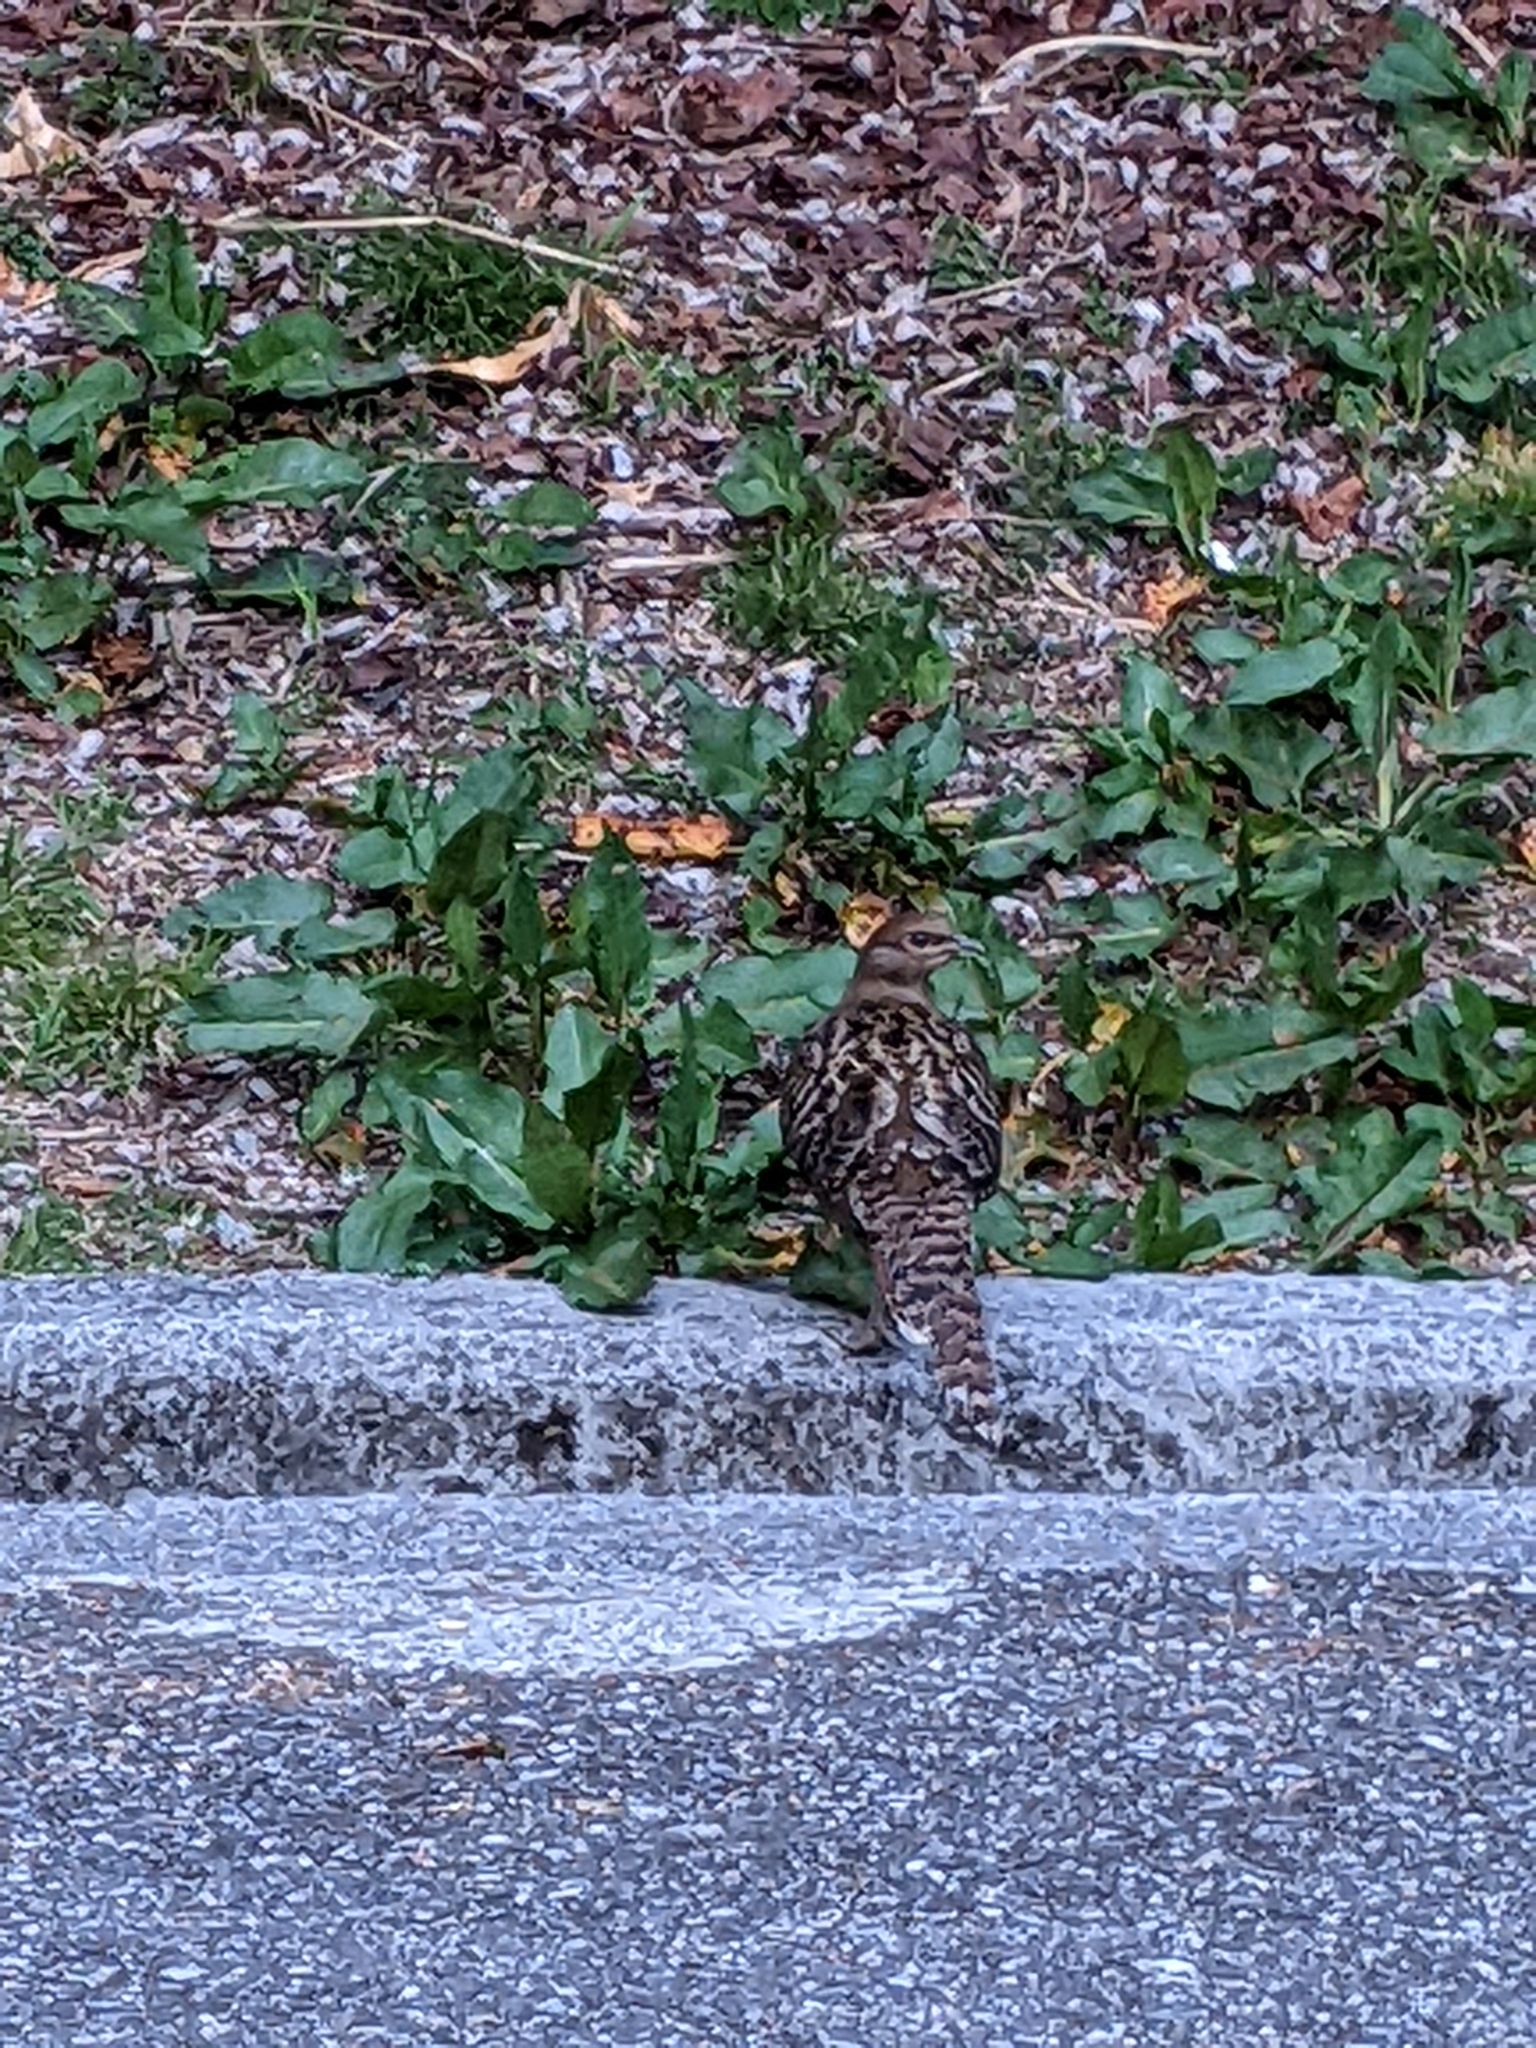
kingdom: Animalia
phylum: Chordata
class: Aves
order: Galliformes
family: Phasianidae
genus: Syrmaticus
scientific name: Syrmaticus mikado
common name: Mikado pheasant
